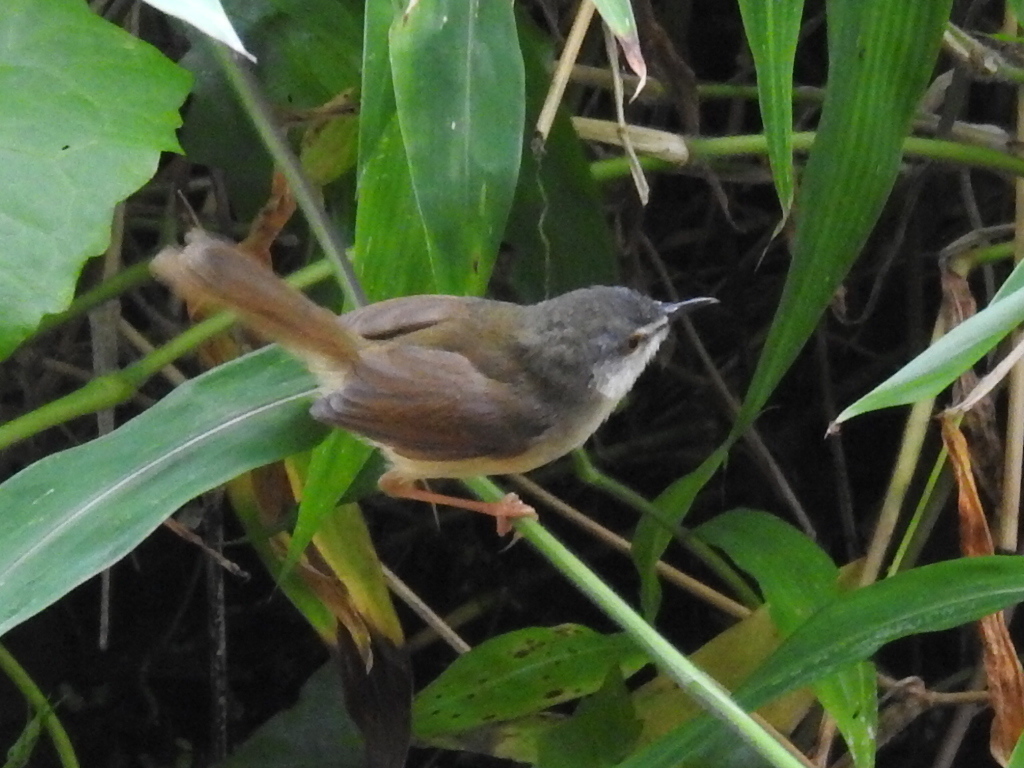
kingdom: Animalia
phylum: Chordata
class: Aves
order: Passeriformes
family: Cisticolidae
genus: Prinia
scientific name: Prinia flaviventris
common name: Yellow-bellied prinia
